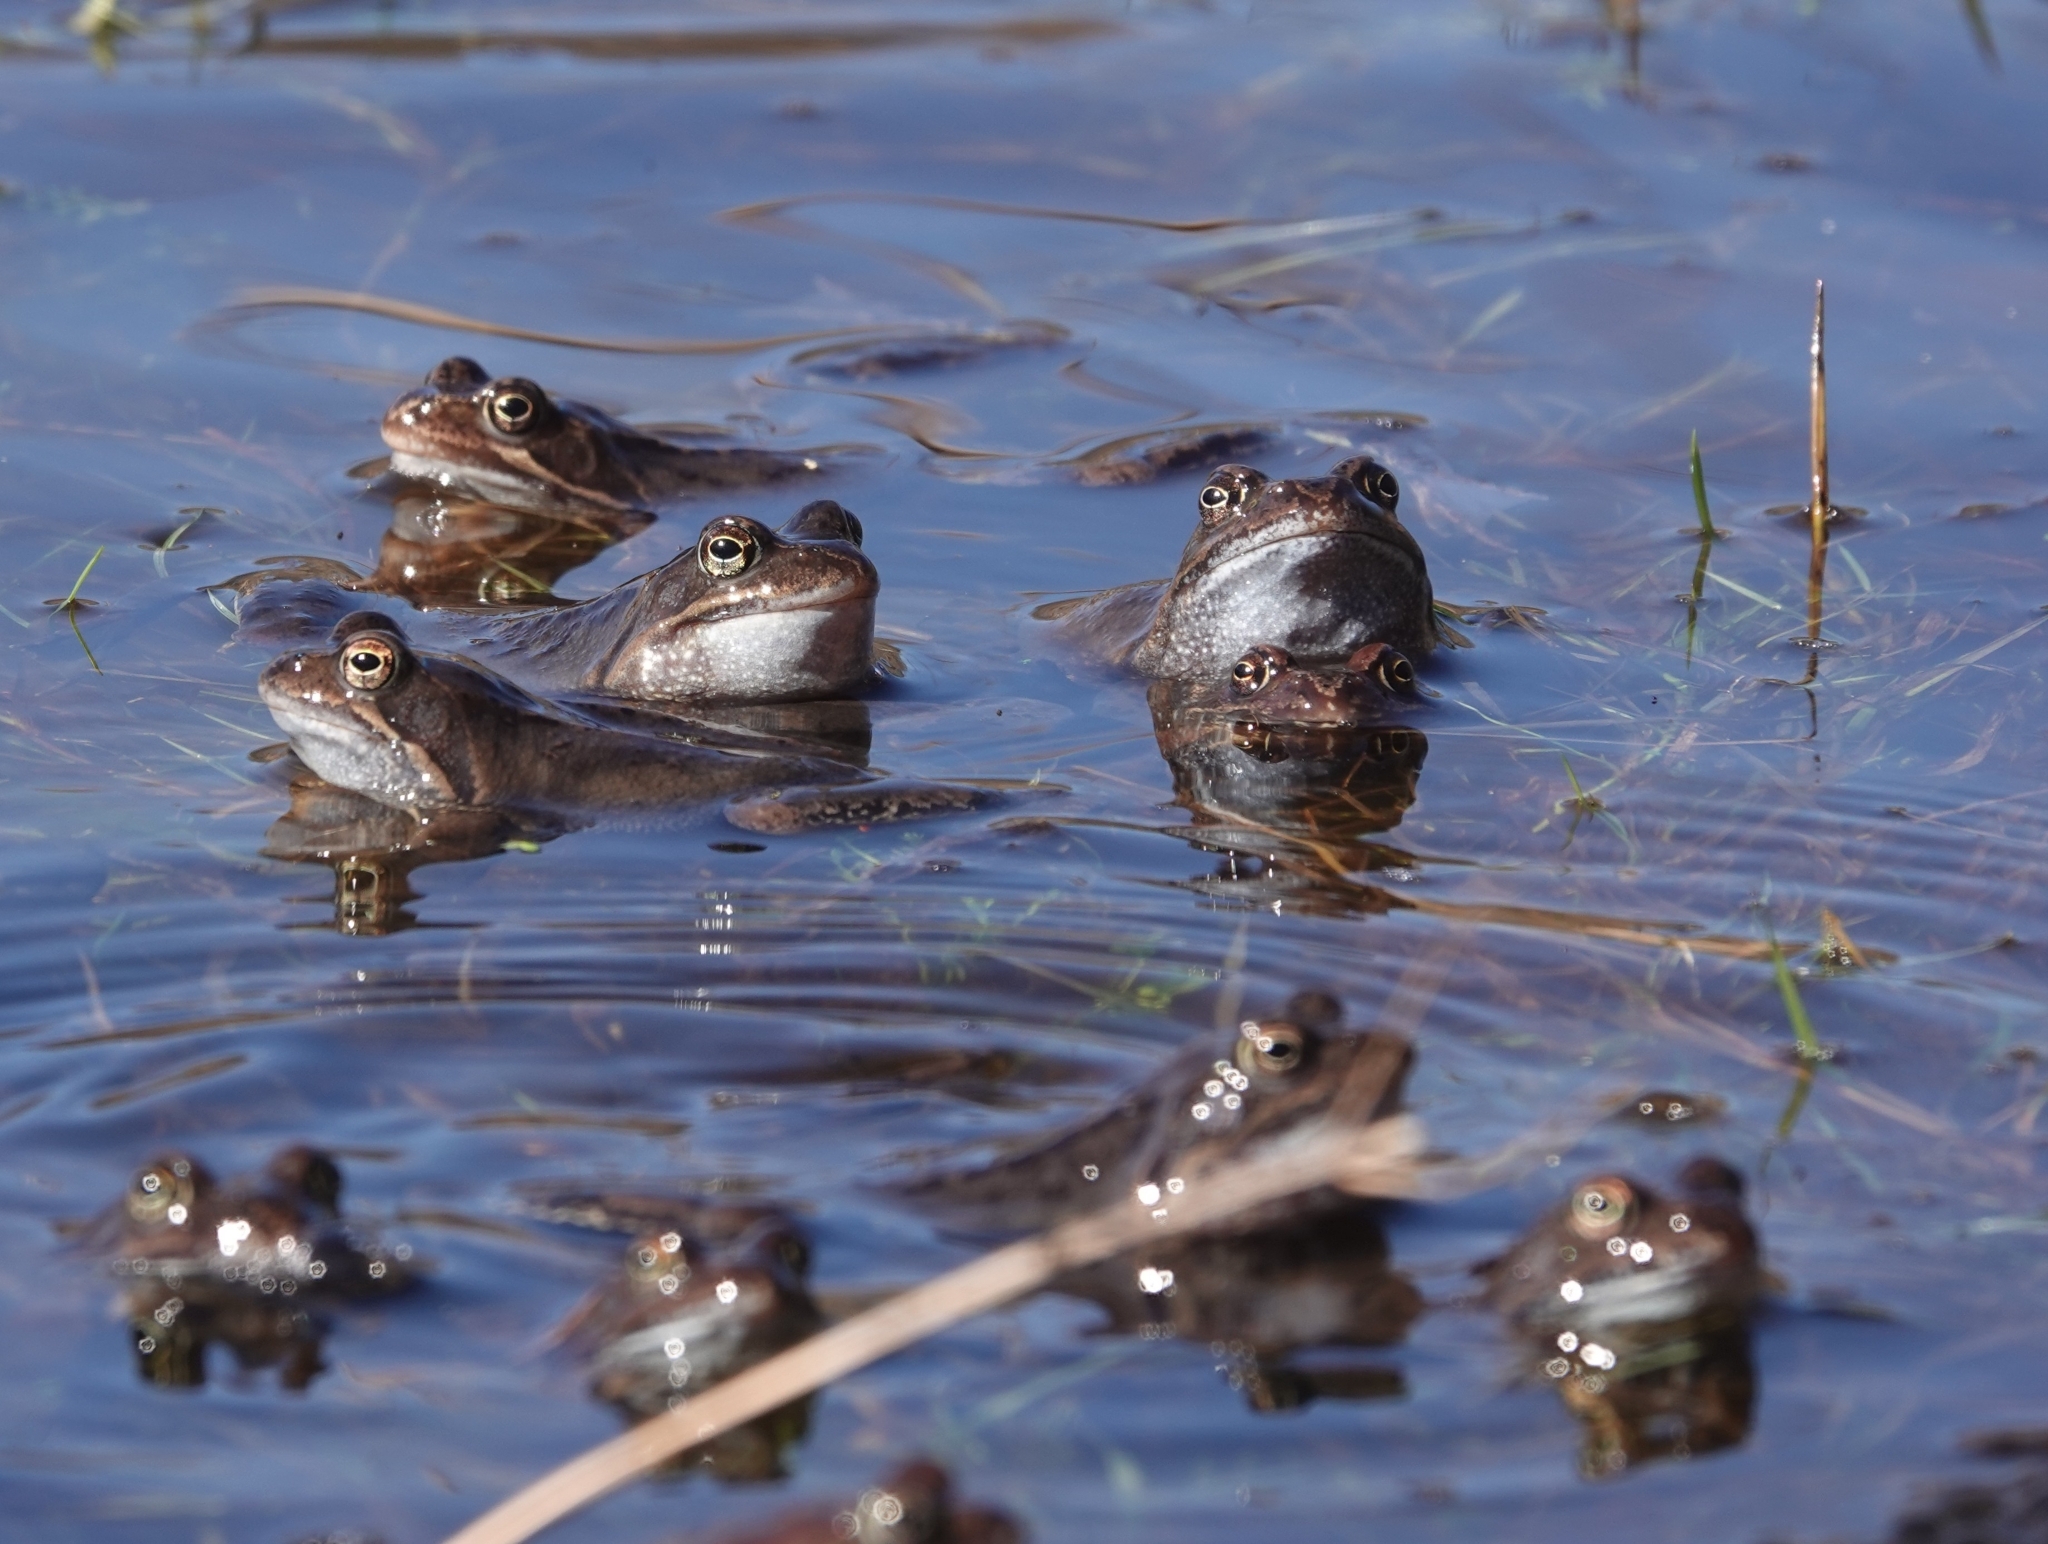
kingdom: Animalia
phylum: Chordata
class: Amphibia
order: Anura
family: Ranidae
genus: Rana
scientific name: Rana temporaria
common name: Common frog
